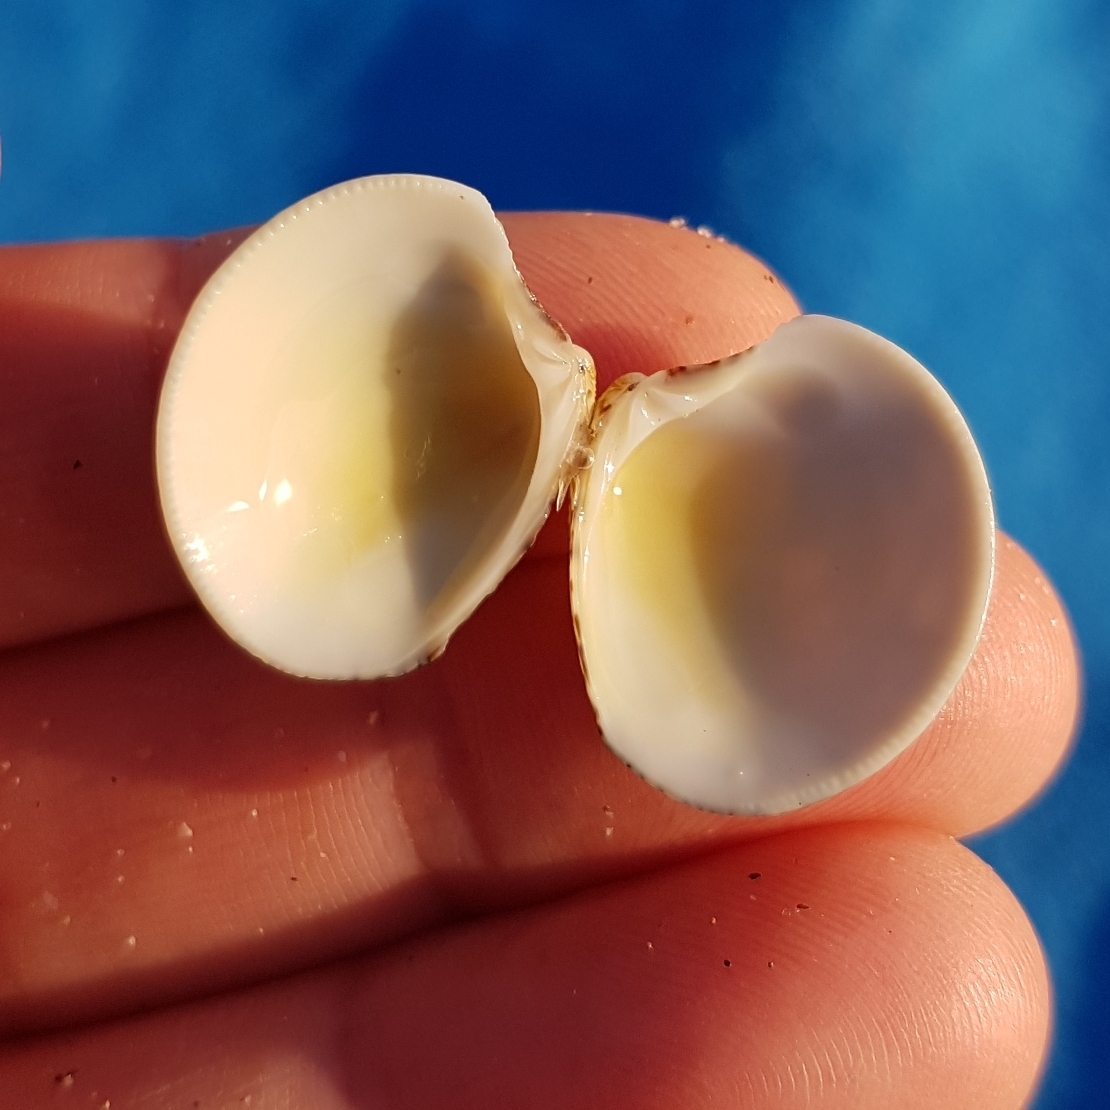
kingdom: Animalia
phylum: Mollusca
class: Bivalvia
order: Venerida
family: Veneridae
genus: Chamelea
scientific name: Chamelea gallina
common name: Chicken venus
